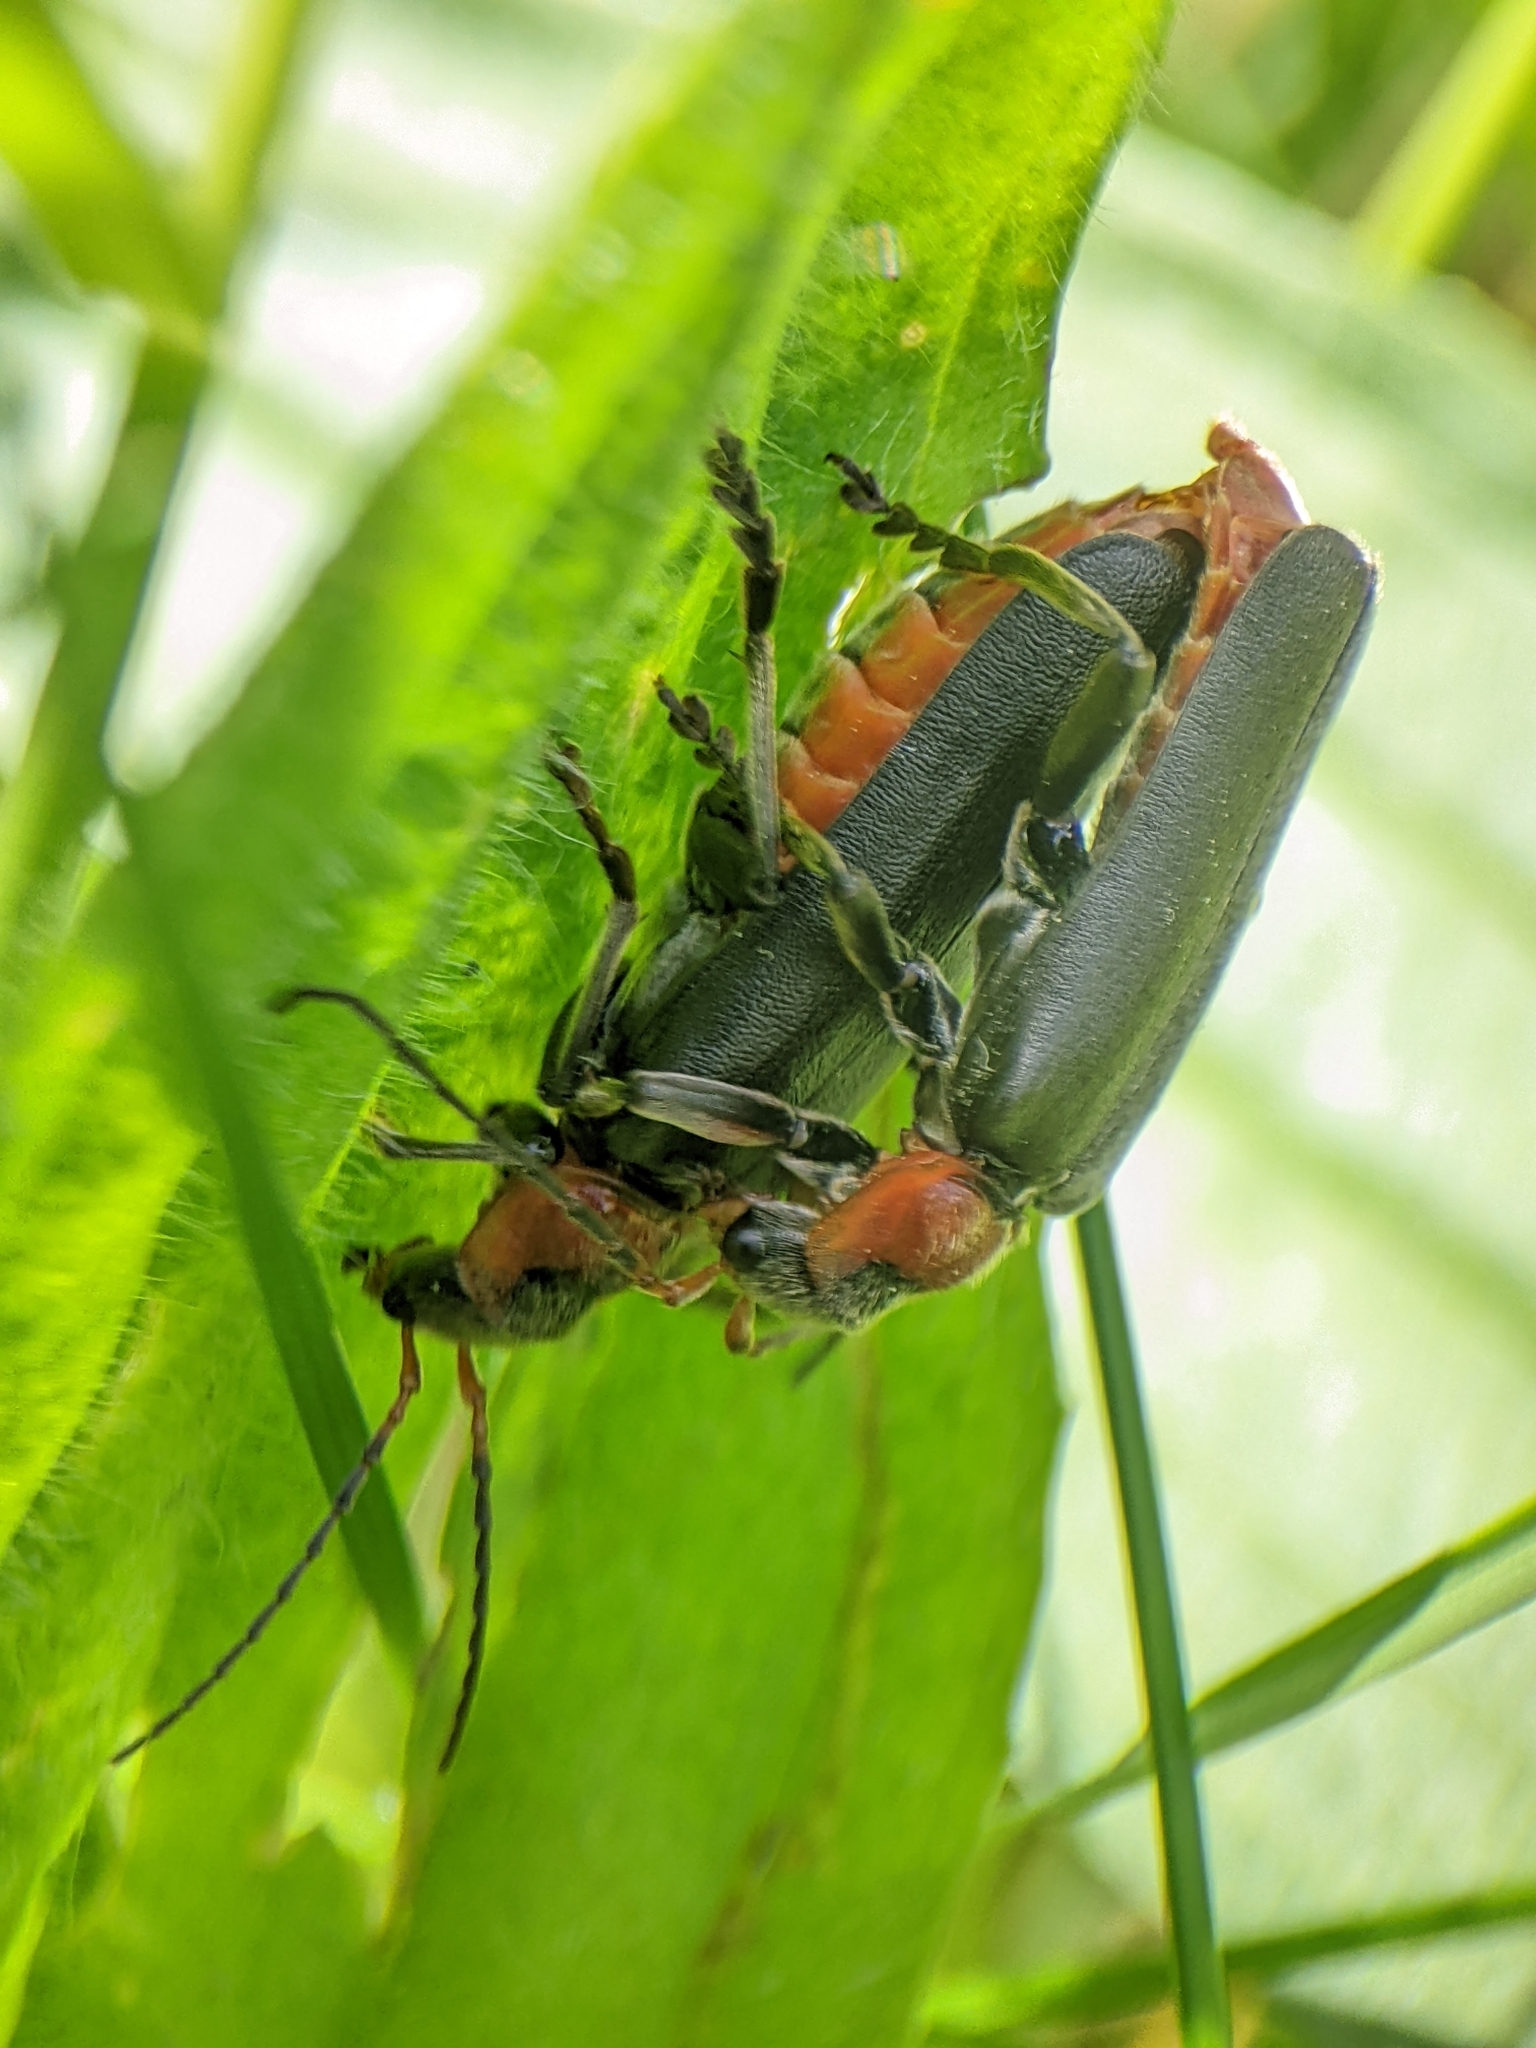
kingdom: Animalia
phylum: Arthropoda
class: Insecta
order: Coleoptera
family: Cantharidae
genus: Cantharis
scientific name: Cantharis fusca
